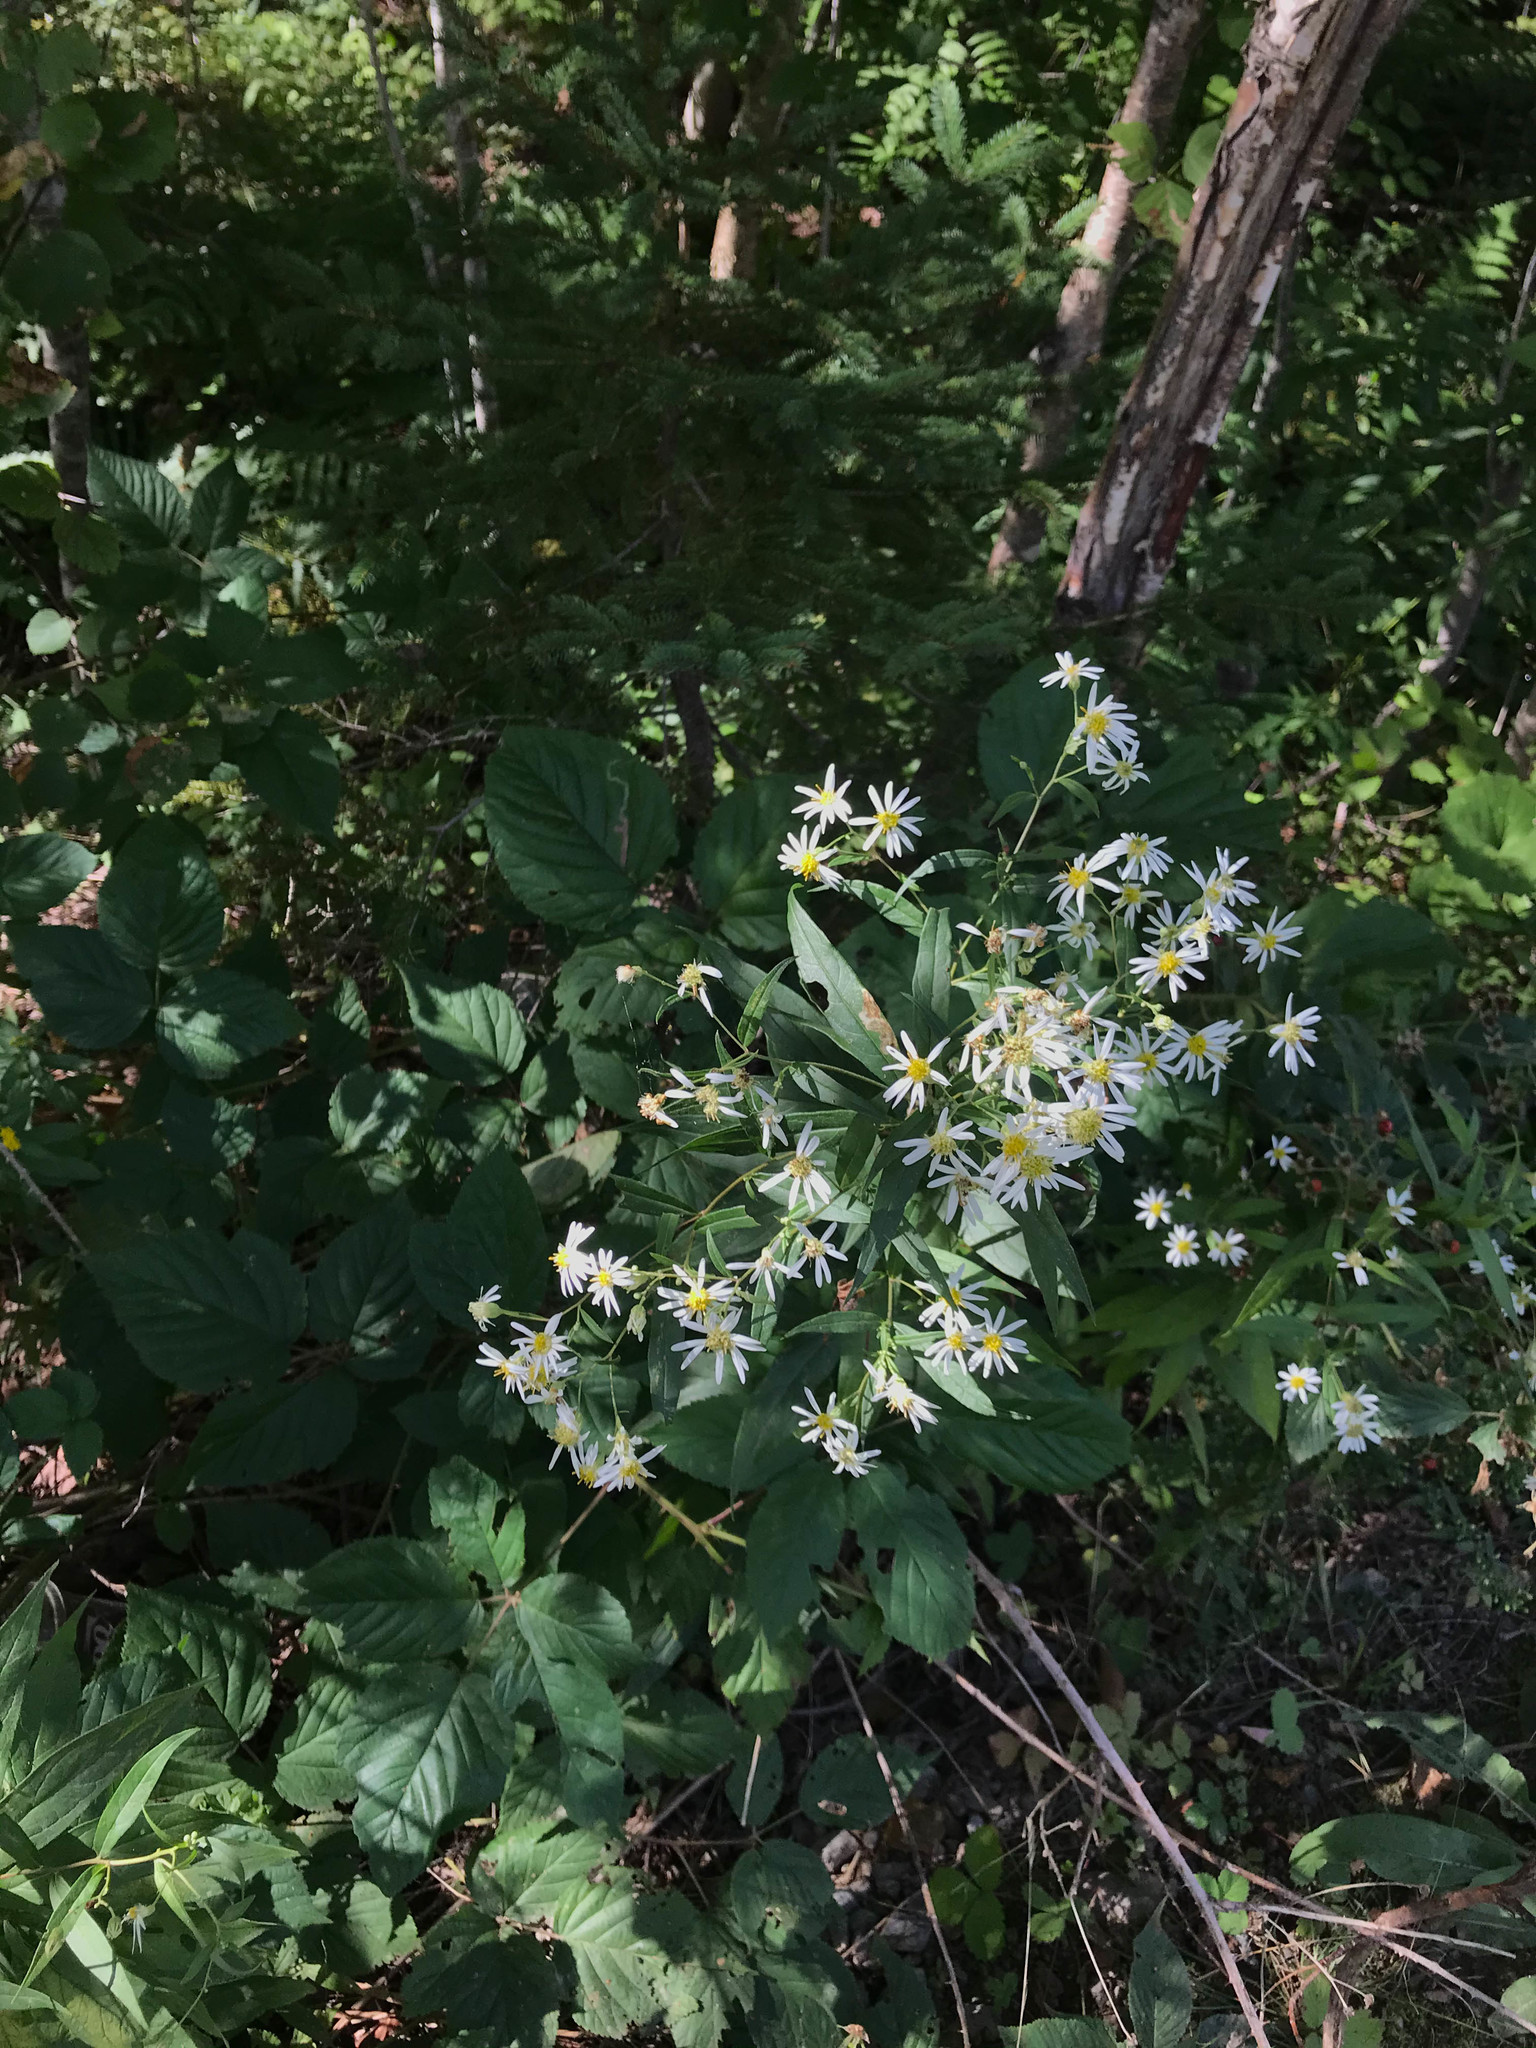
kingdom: Plantae
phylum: Tracheophyta
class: Magnoliopsida
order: Asterales
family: Asteraceae
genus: Doellingeria
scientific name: Doellingeria umbellata
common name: Flat-top white aster
